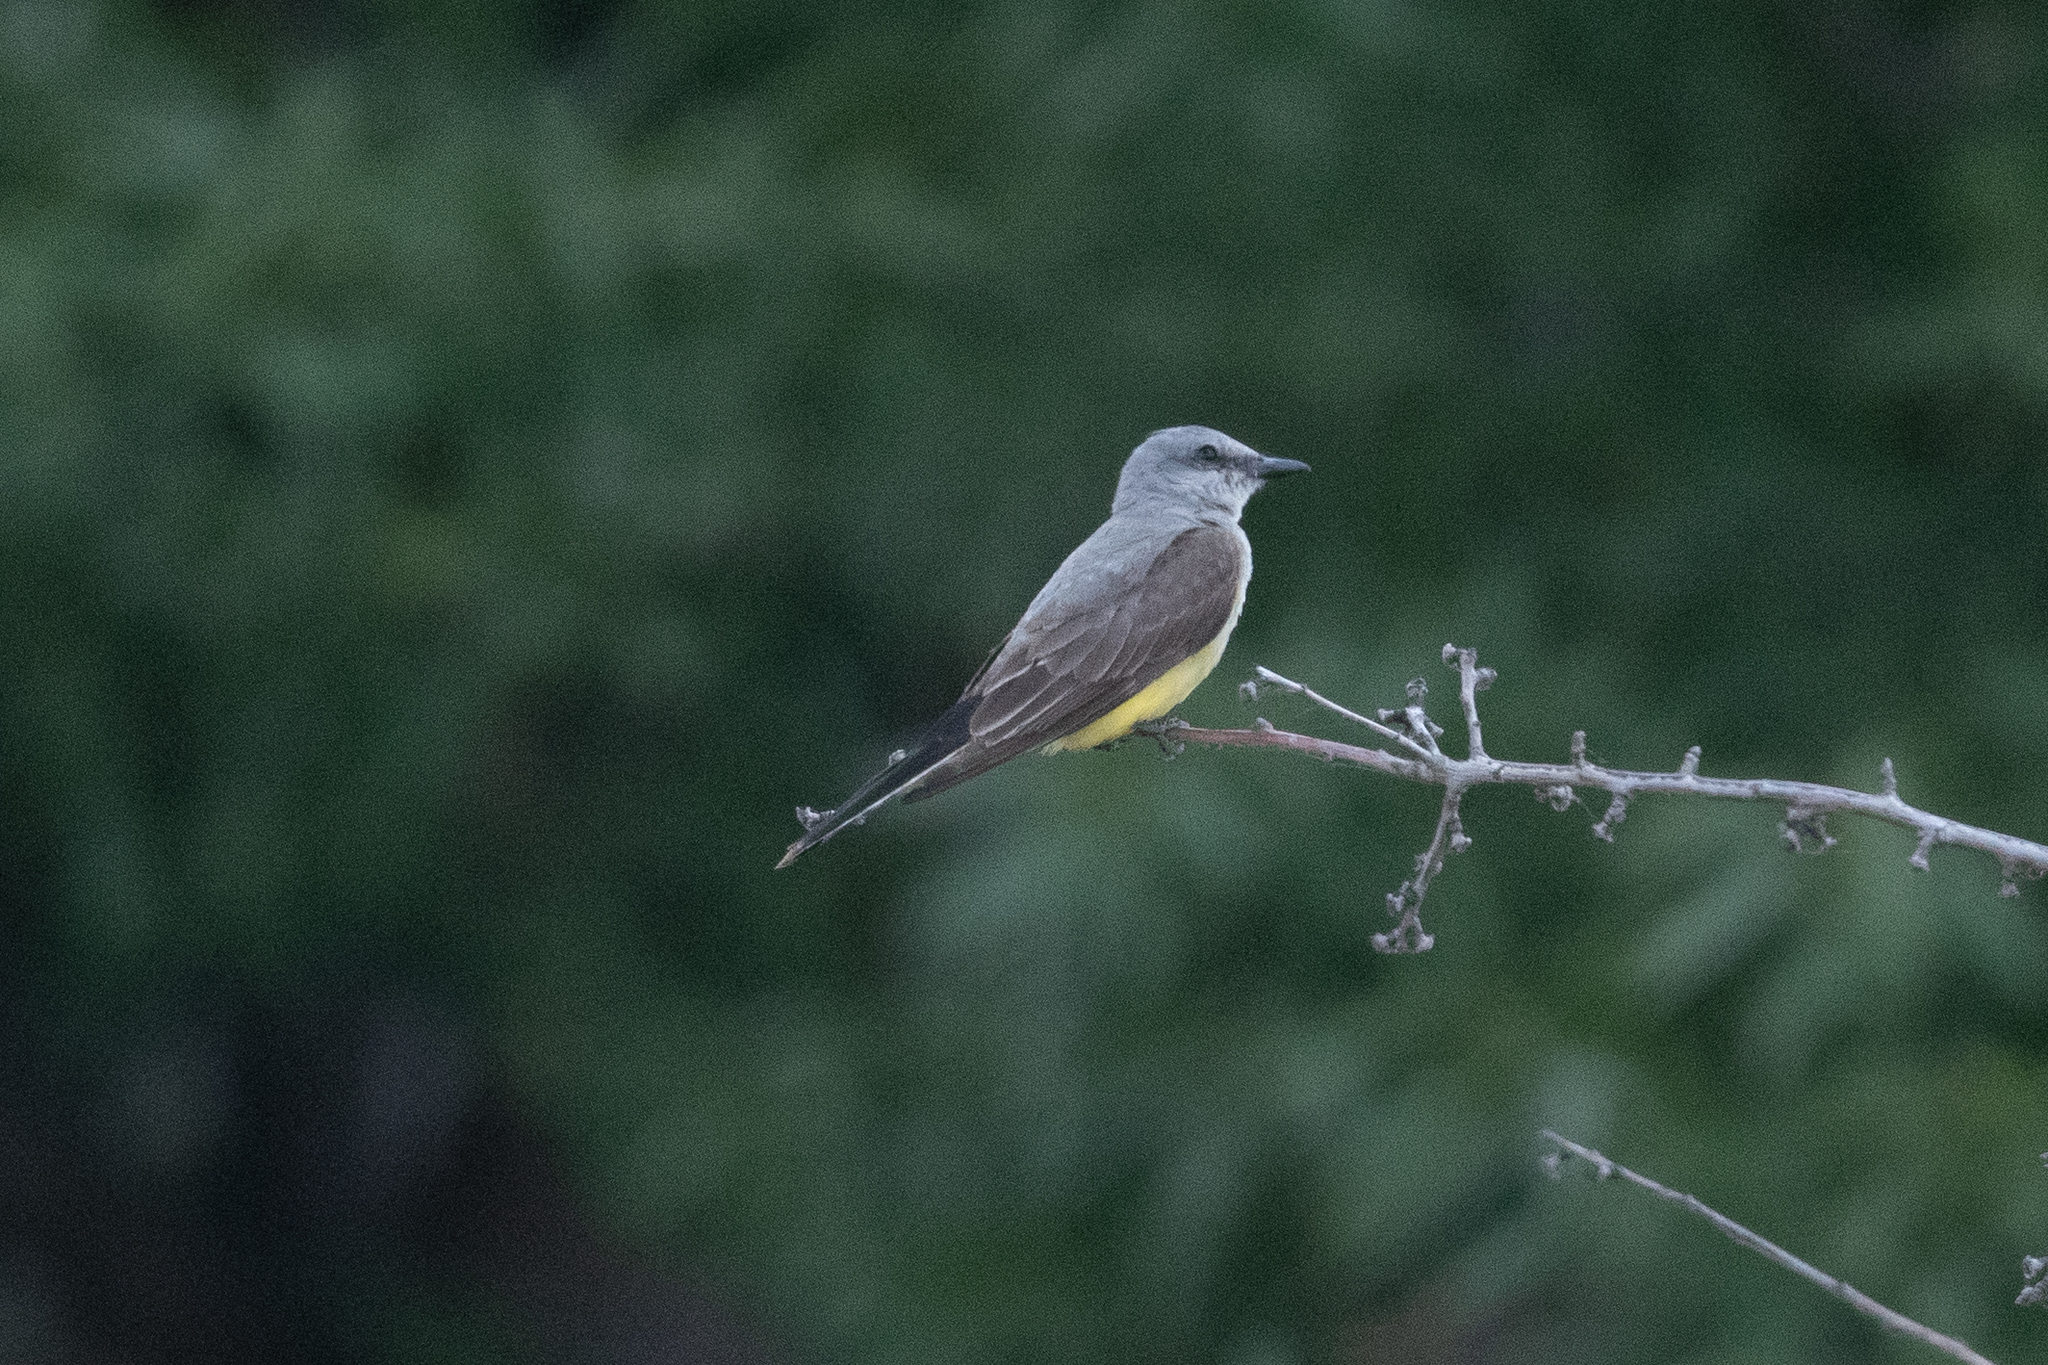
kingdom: Animalia
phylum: Chordata
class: Aves
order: Passeriformes
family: Tyrannidae
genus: Tyrannus
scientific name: Tyrannus verticalis
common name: Western kingbird
